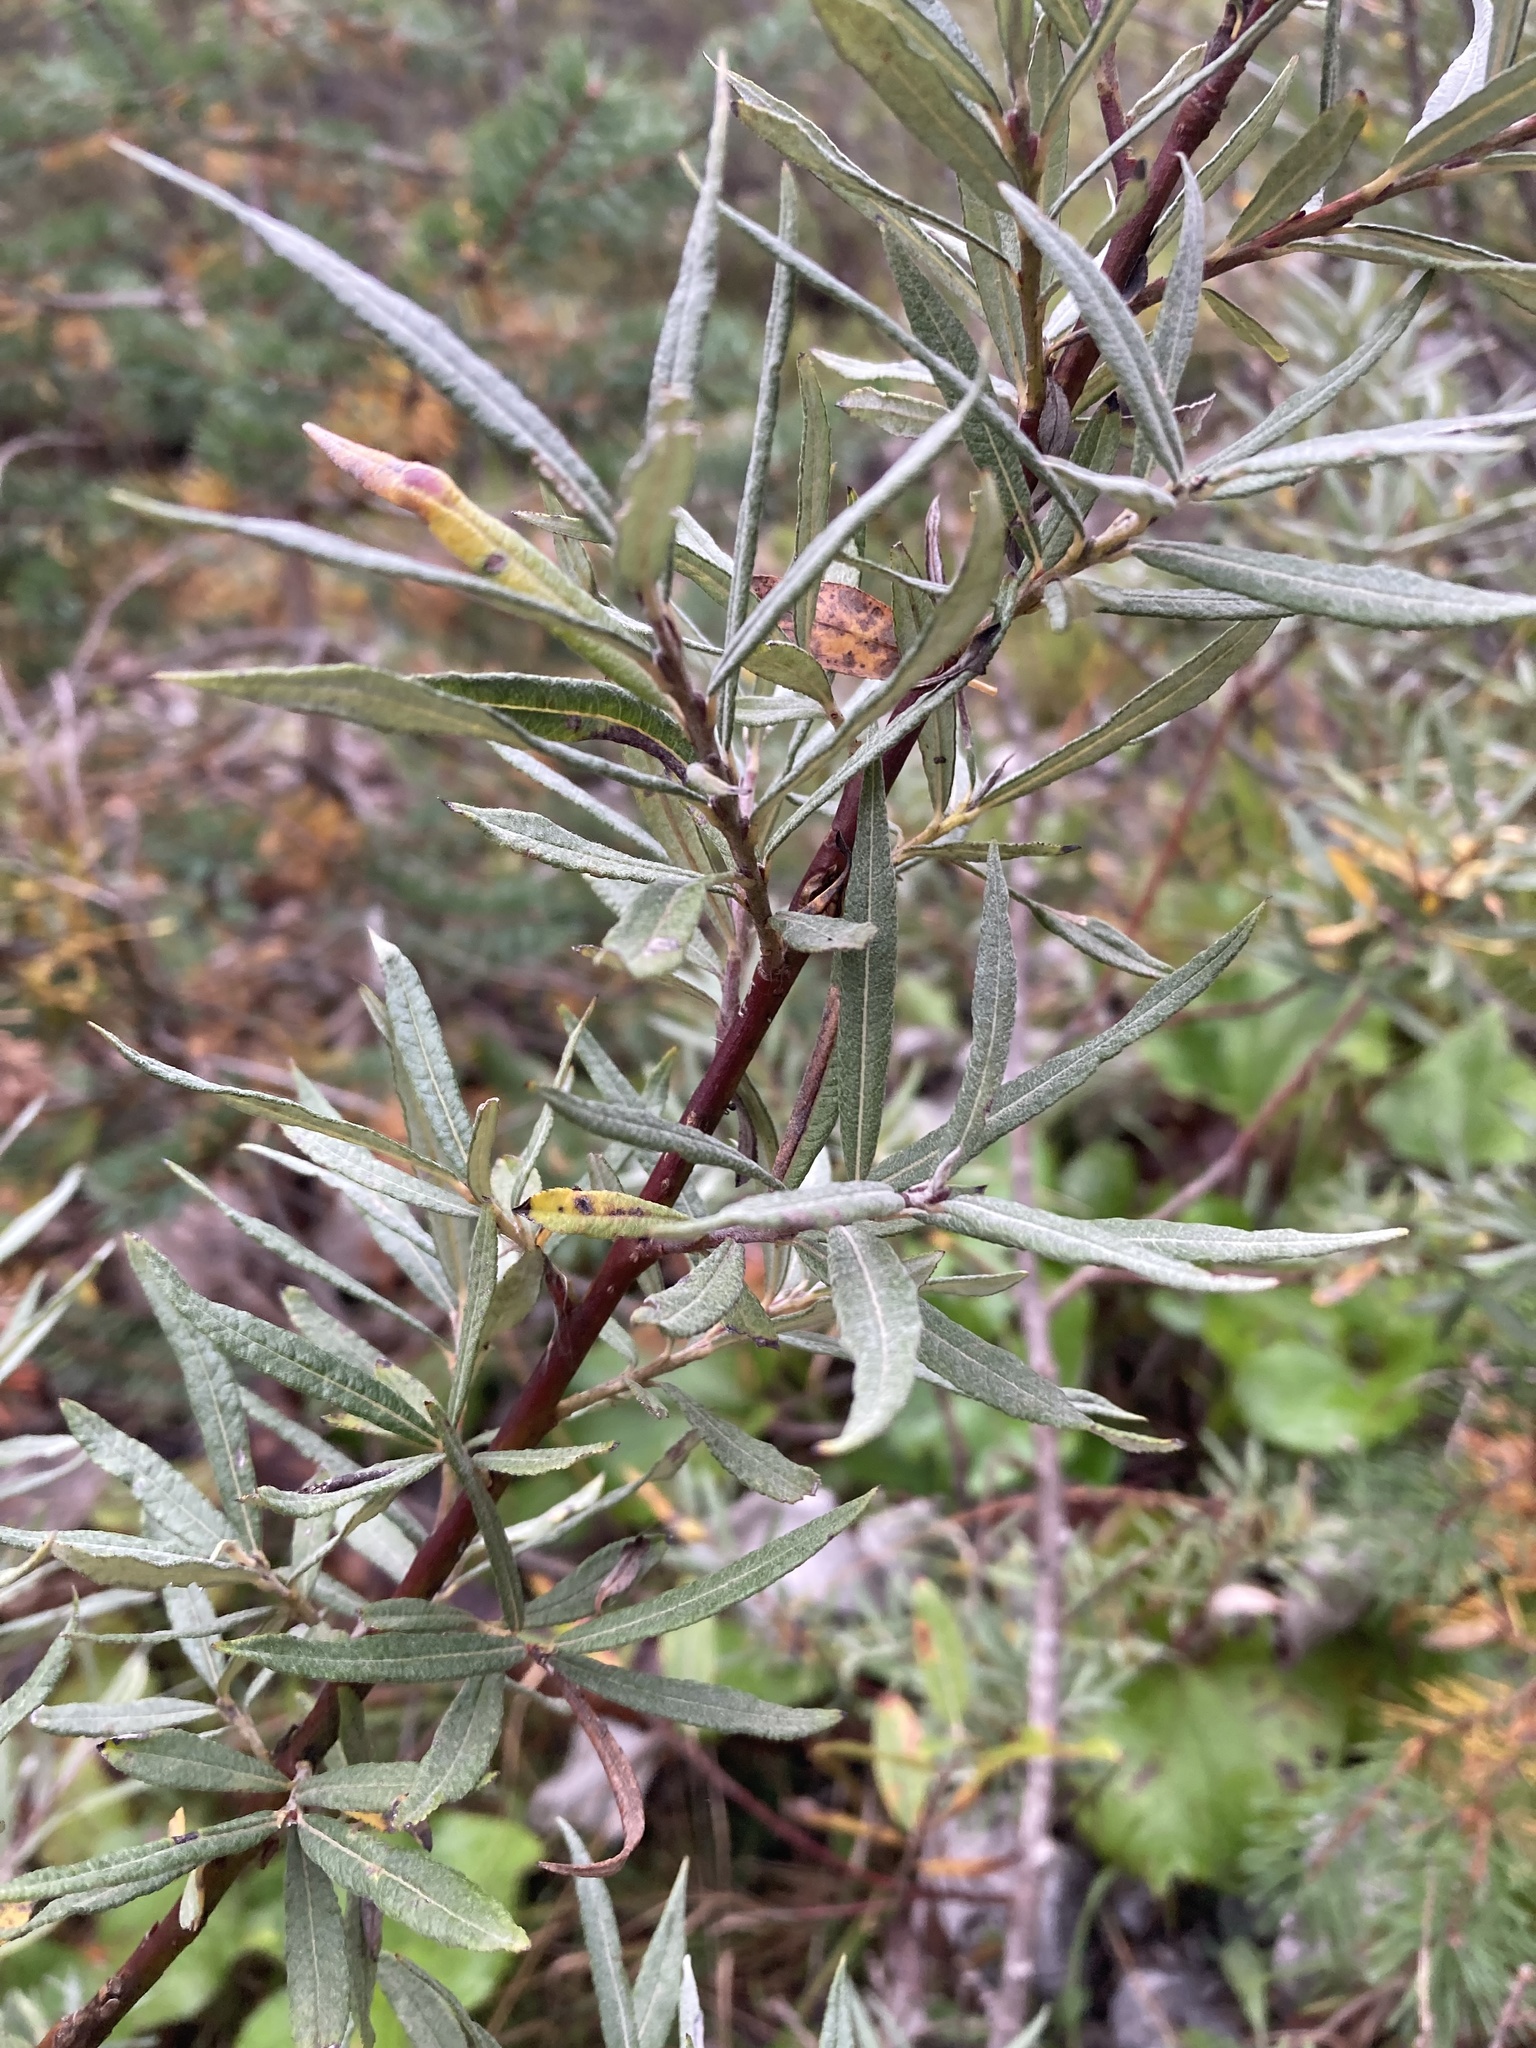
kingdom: Plantae
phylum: Tracheophyta
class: Magnoliopsida
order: Rosales
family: Elaeagnaceae
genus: Hippophae
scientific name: Hippophae rhamnoides
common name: Sea-buckthorn
